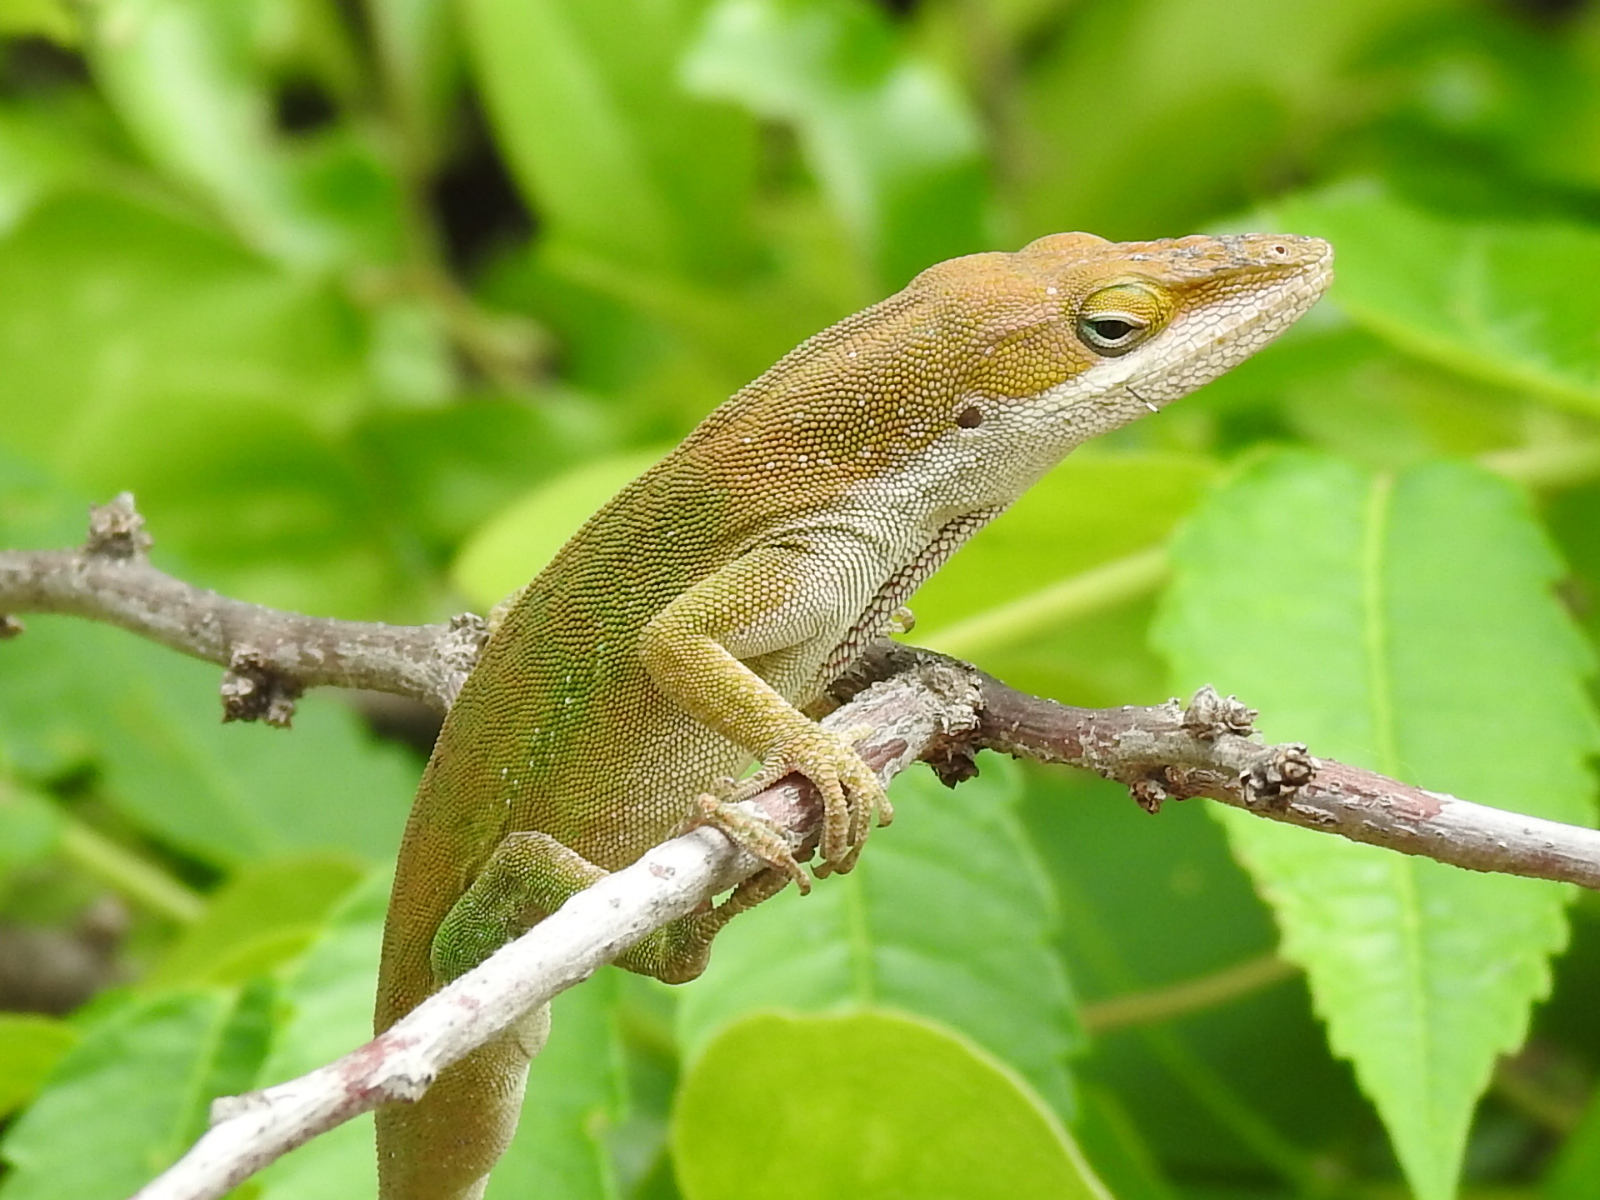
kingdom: Animalia
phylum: Chordata
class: Squamata
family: Dactyloidae
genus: Anolis
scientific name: Anolis carolinensis
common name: Green anole
